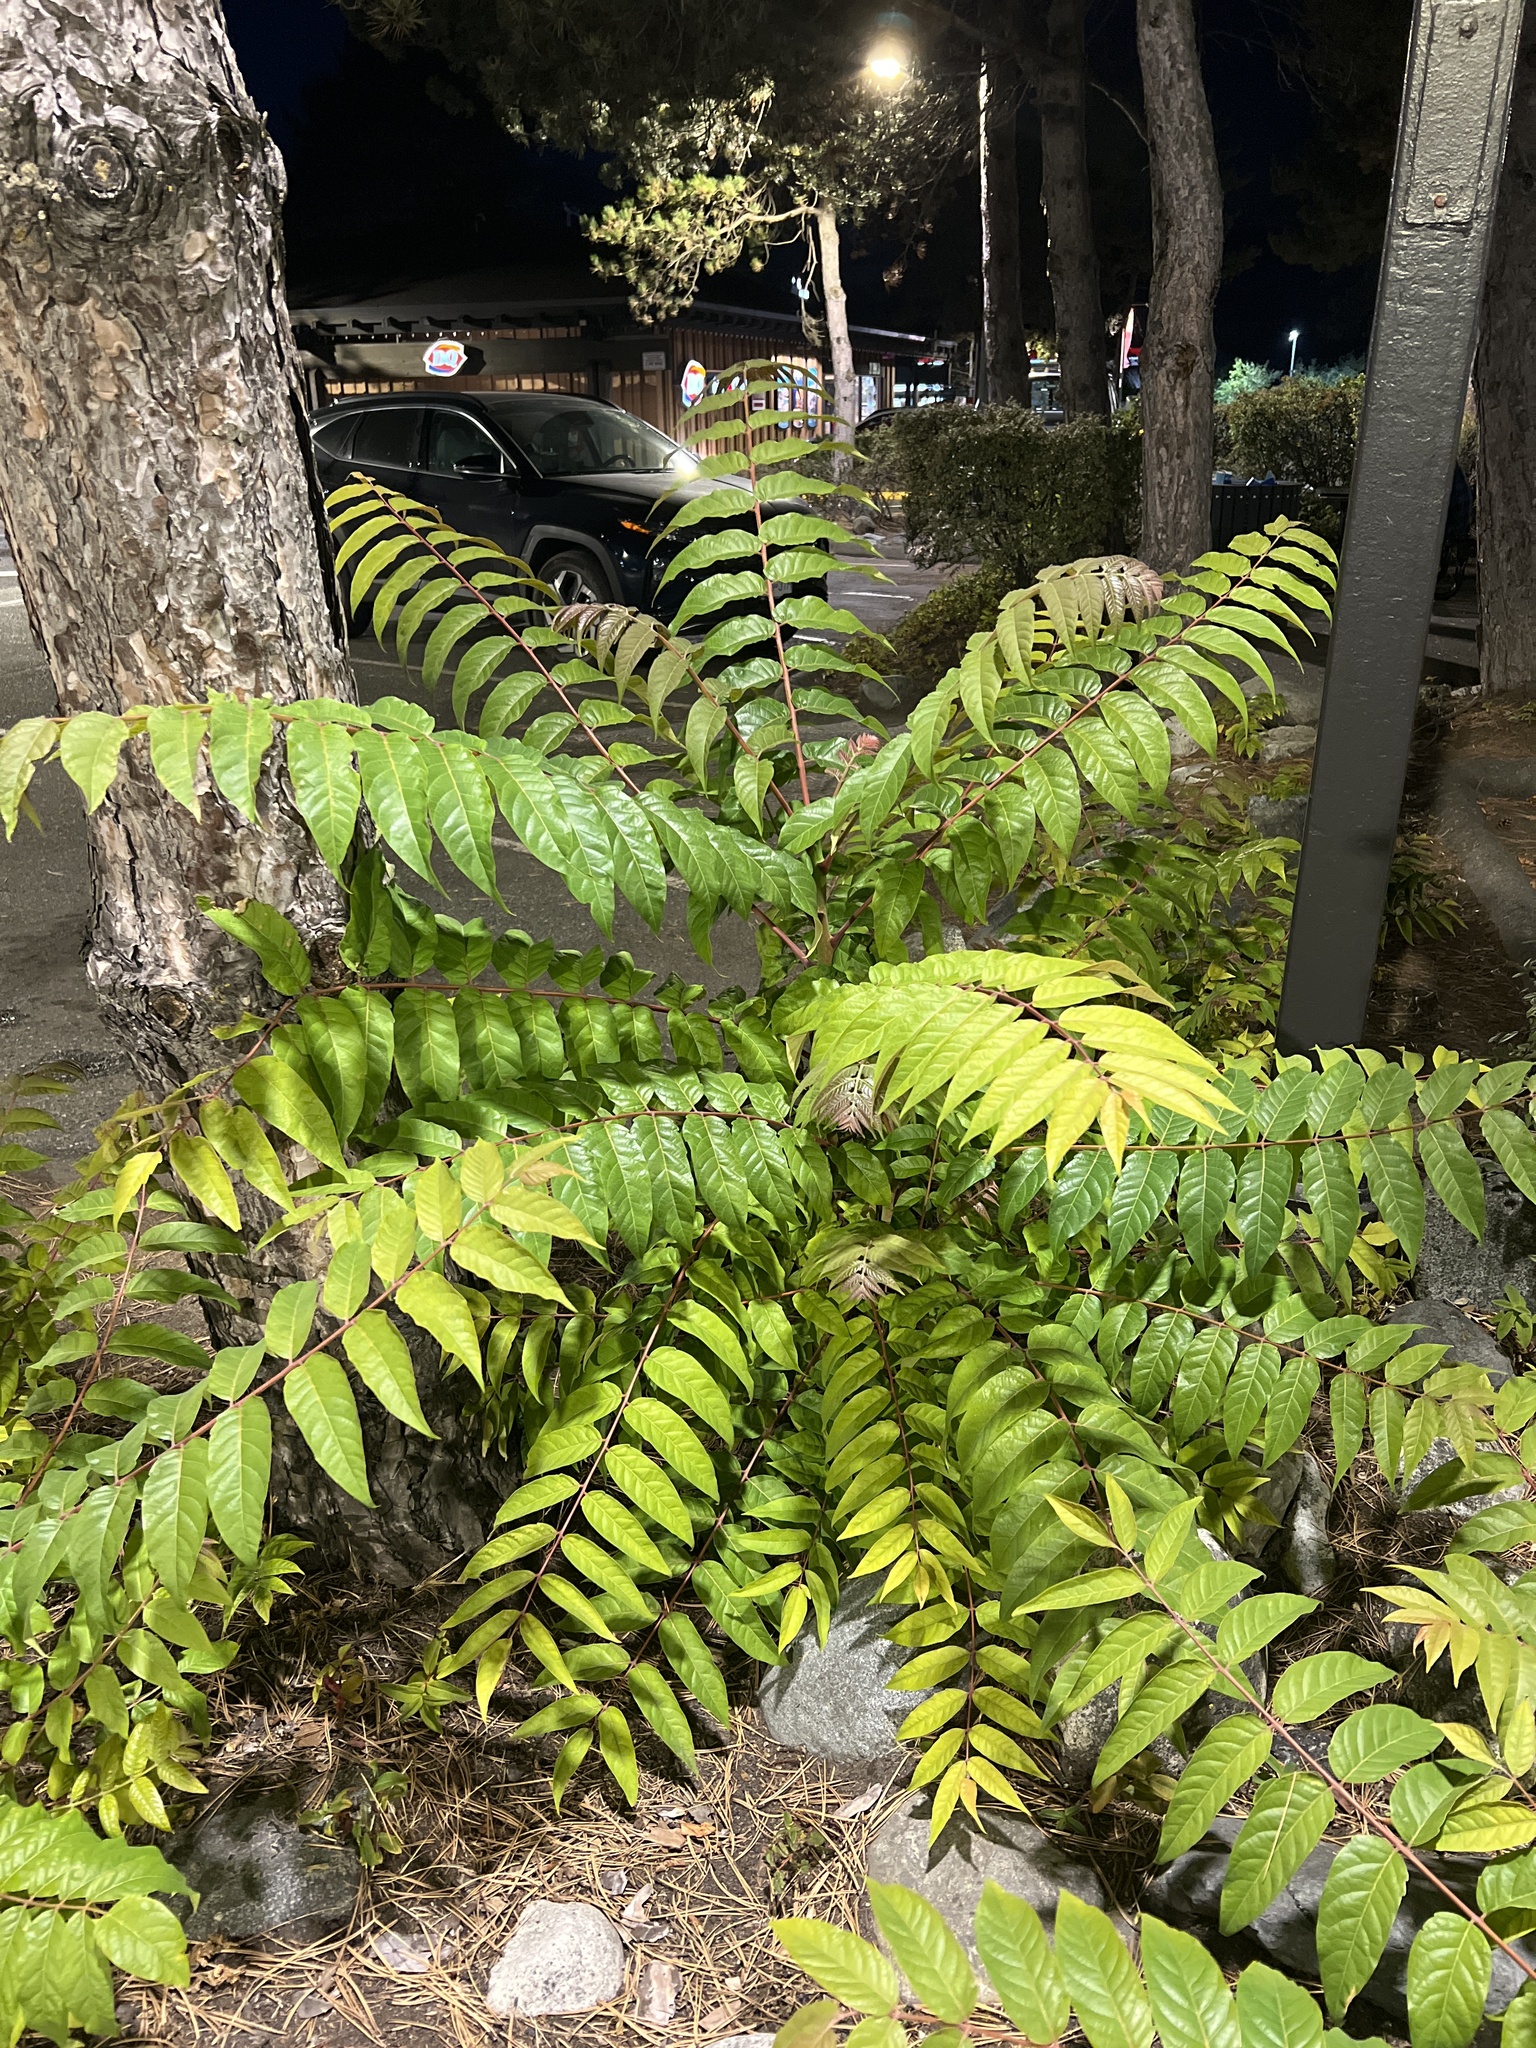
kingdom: Plantae
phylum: Tracheophyta
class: Magnoliopsida
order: Sapindales
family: Simaroubaceae
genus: Ailanthus
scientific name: Ailanthus altissima
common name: Tree-of-heaven
